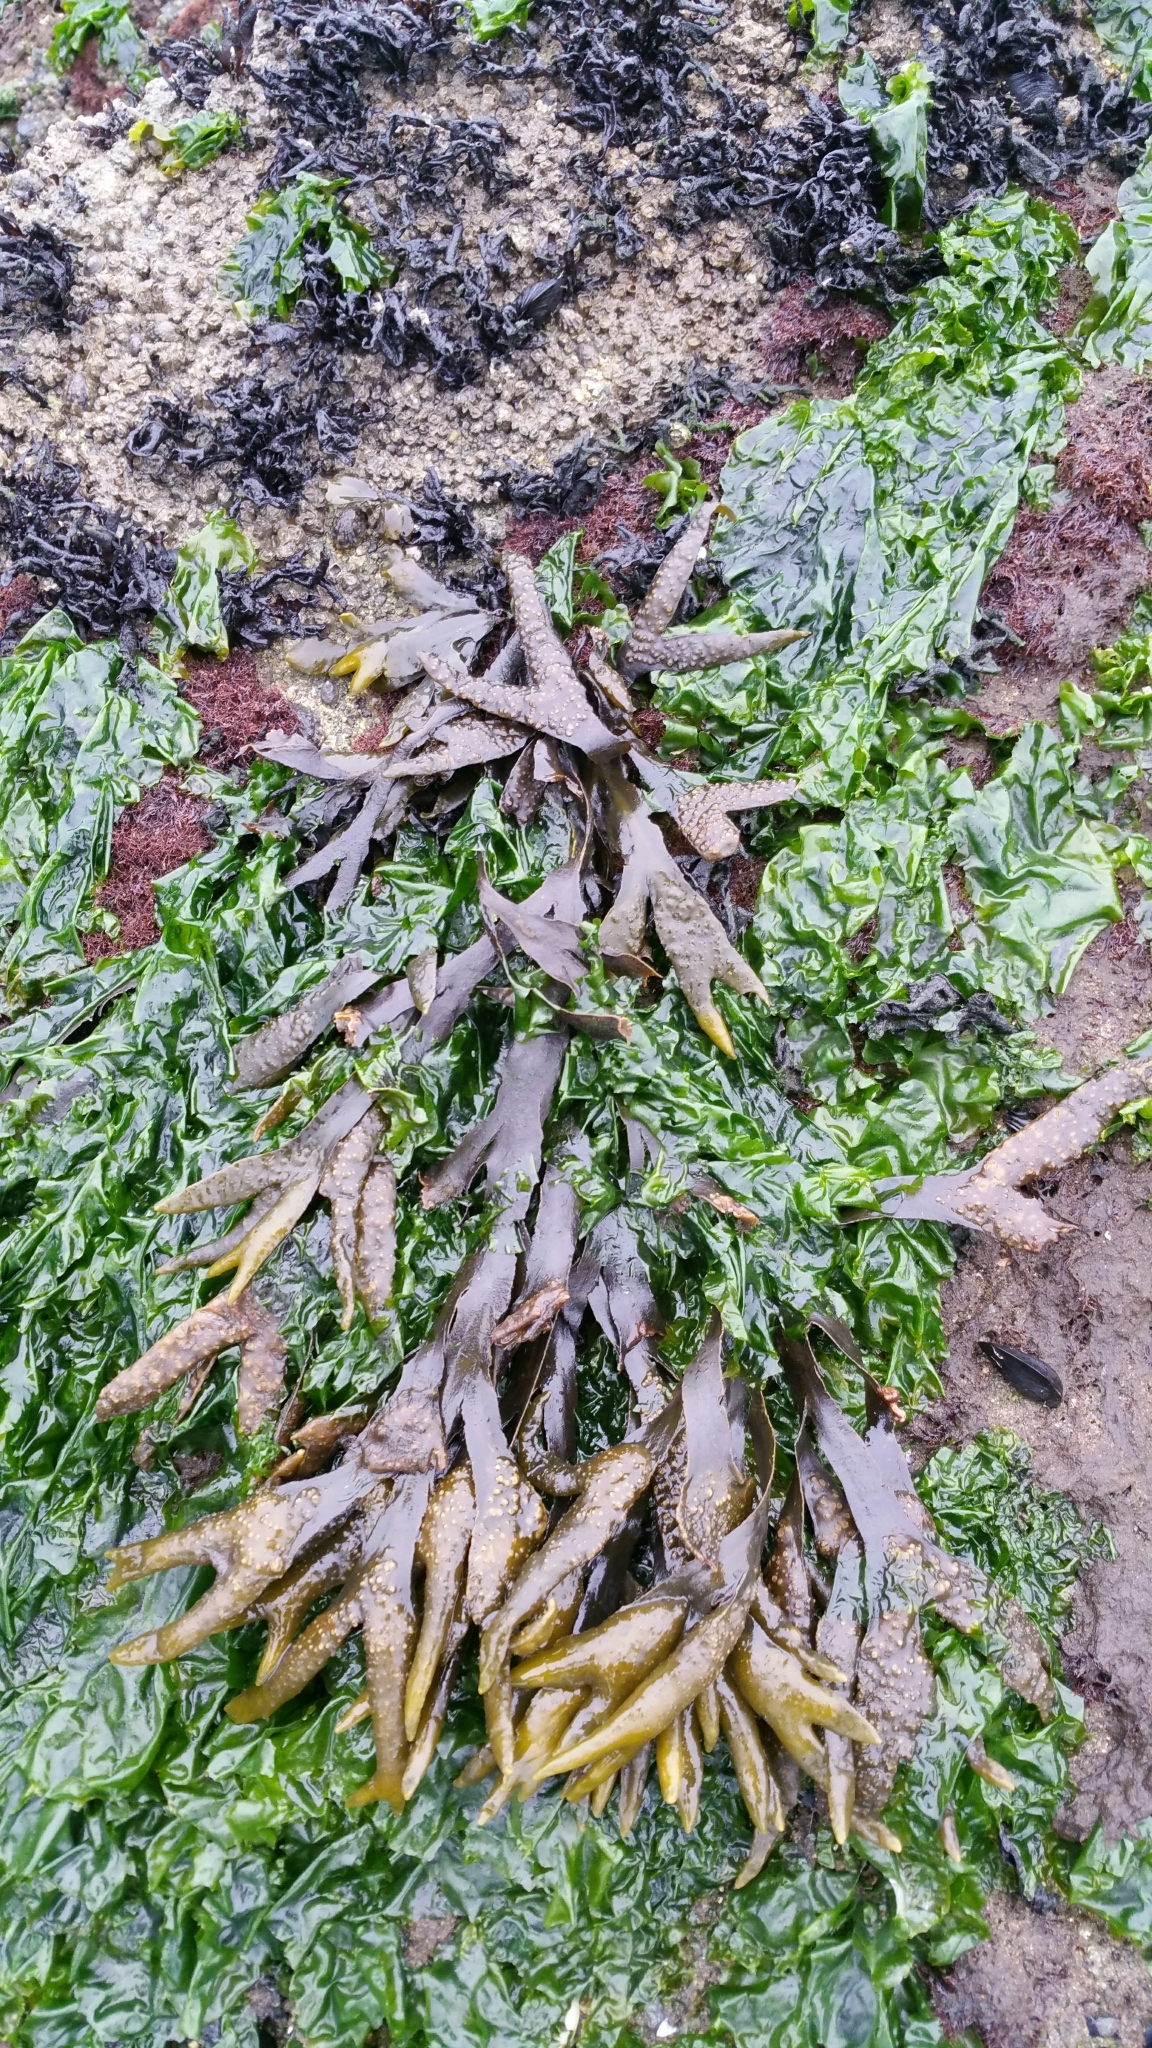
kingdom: Chromista
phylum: Ochrophyta
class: Phaeophyceae
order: Fucales
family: Fucaceae
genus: Fucus
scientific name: Fucus distichus
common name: Rockweed
